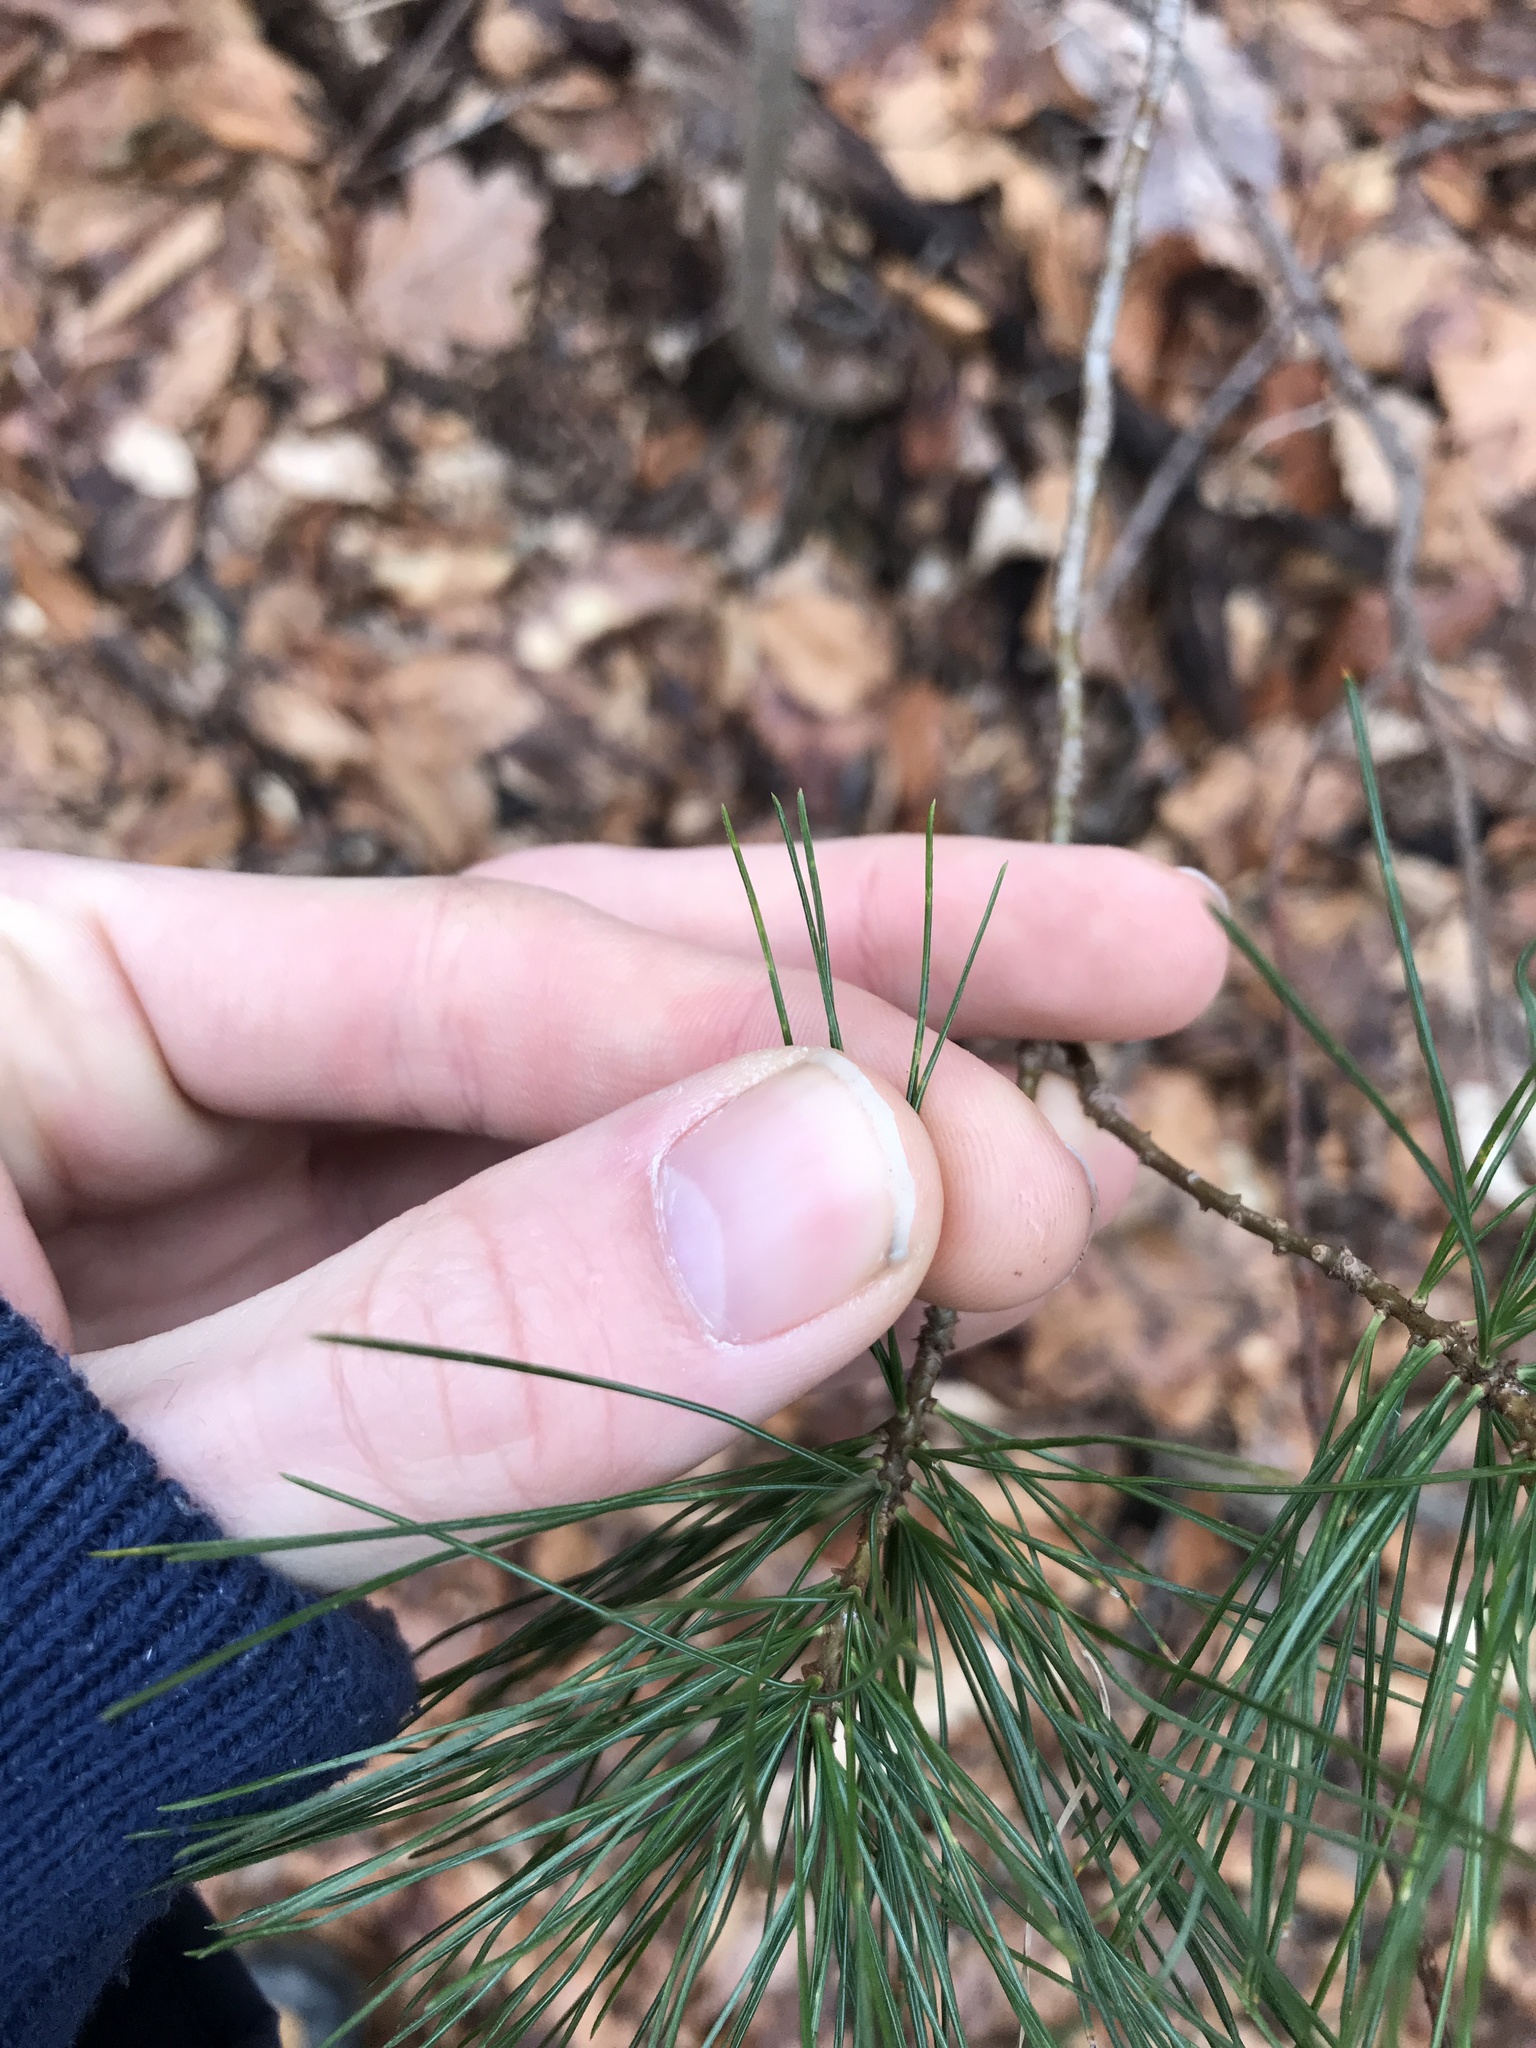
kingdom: Plantae
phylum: Tracheophyta
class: Pinopsida
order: Pinales
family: Pinaceae
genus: Pinus
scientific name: Pinus strobus
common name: Weymouth pine
